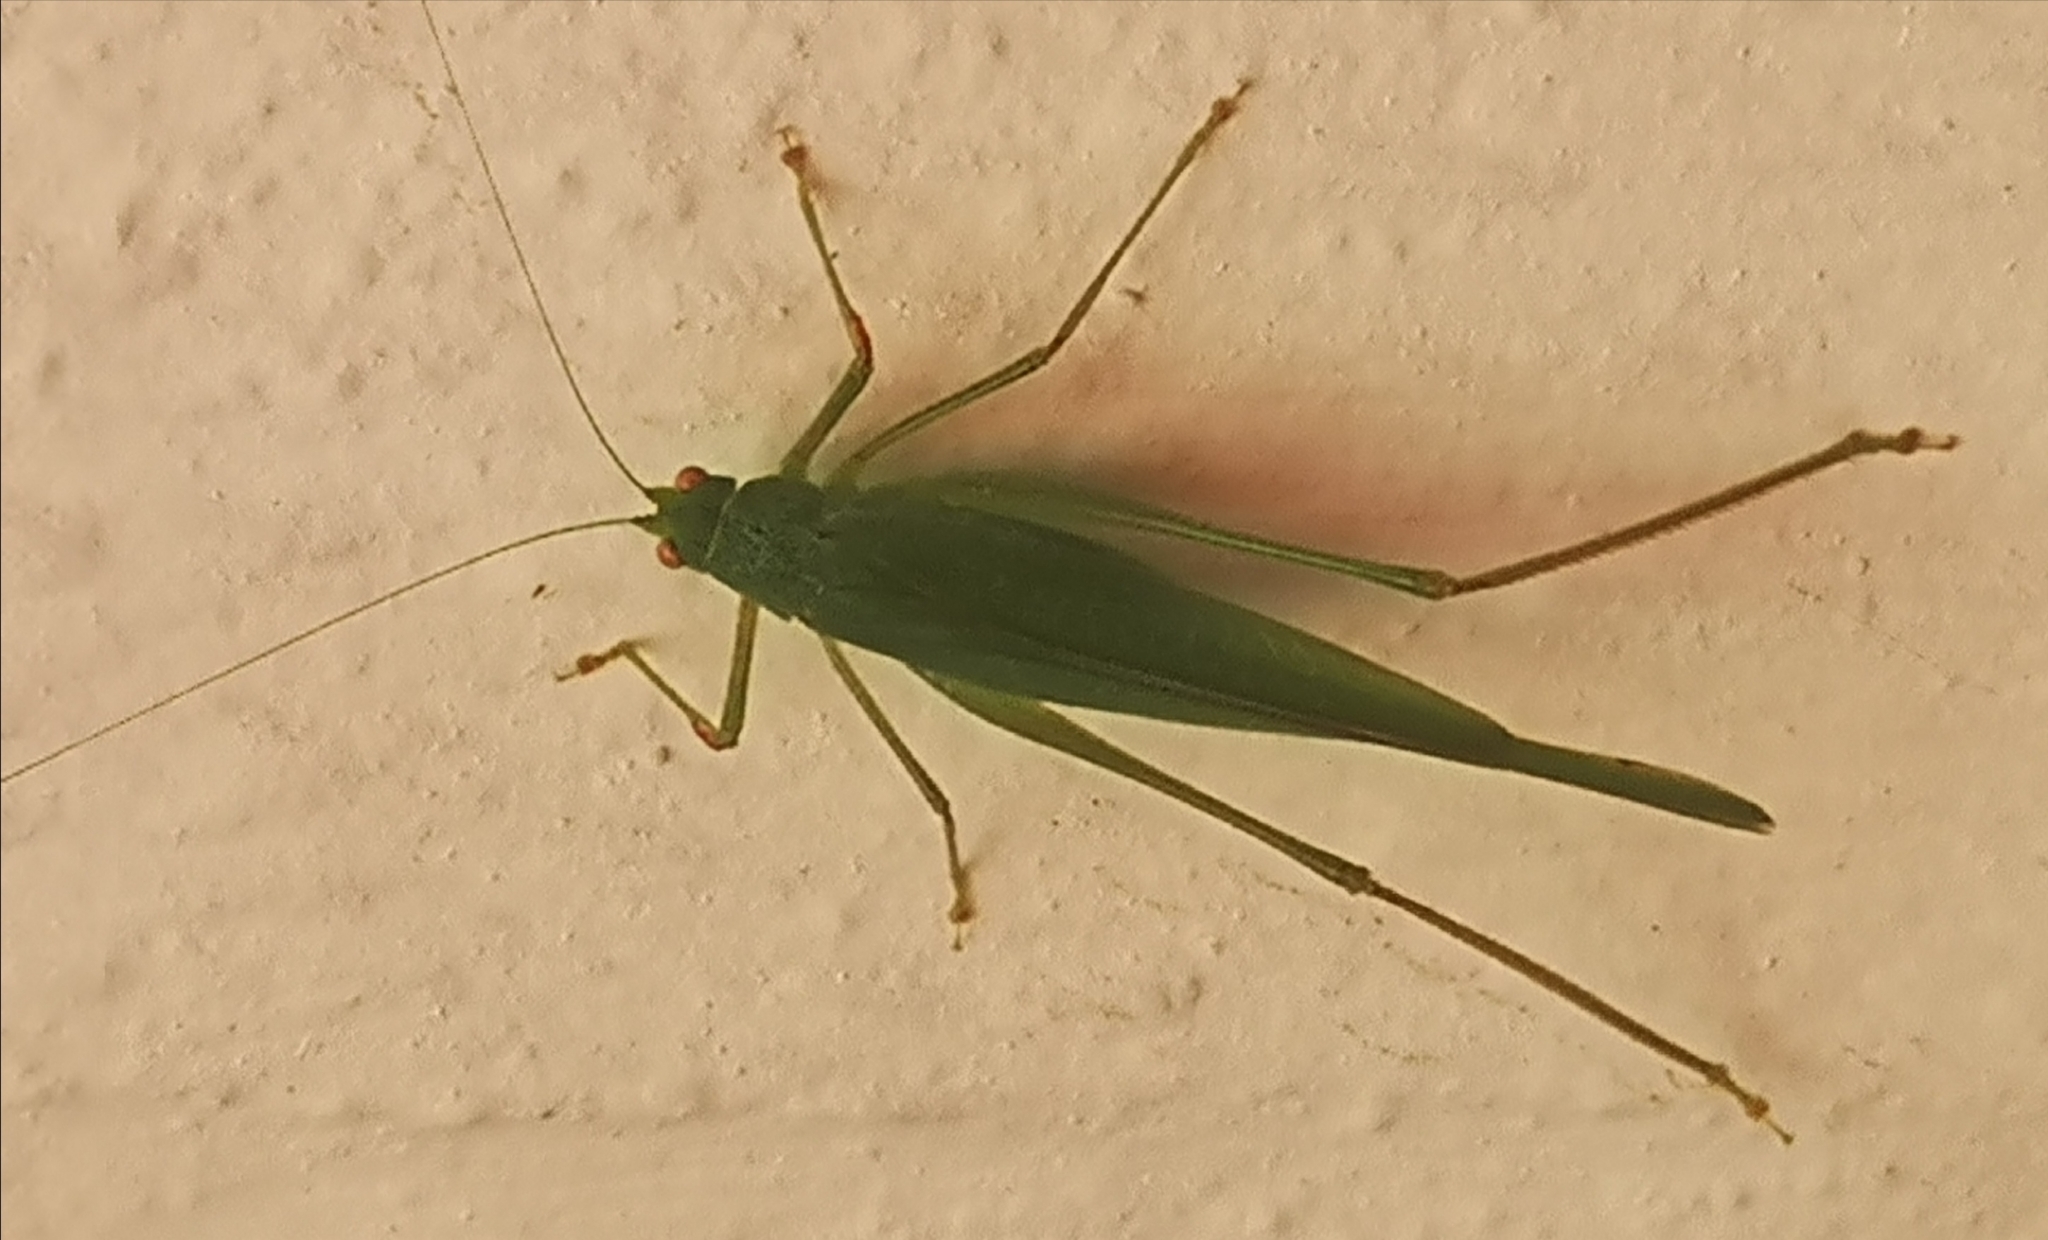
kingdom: Animalia
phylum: Arthropoda
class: Insecta
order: Orthoptera
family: Tettigoniidae
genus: Phaneroptera
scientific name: Phaneroptera nana
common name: Southern sickle bush-cricket
